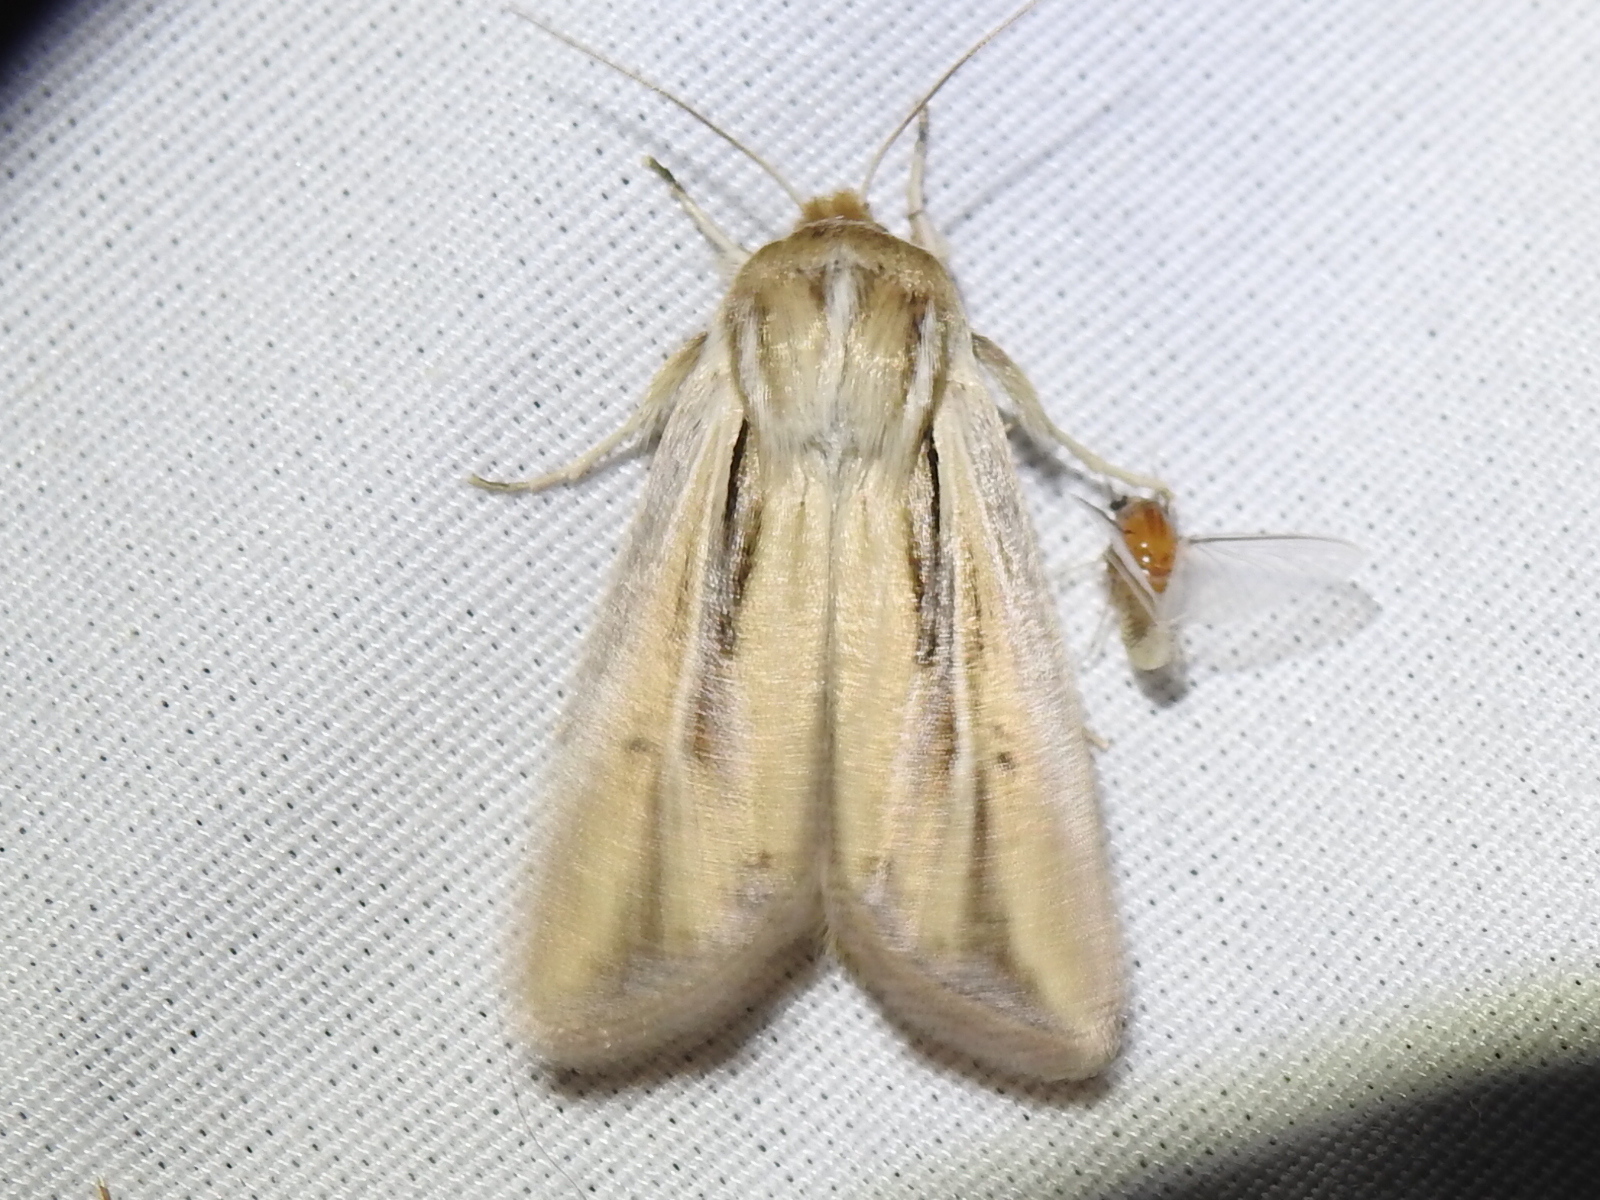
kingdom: Animalia
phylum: Arthropoda
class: Insecta
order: Lepidoptera
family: Noctuidae
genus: Dargida
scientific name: Dargida diffusa
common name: Wheat head armyworm
